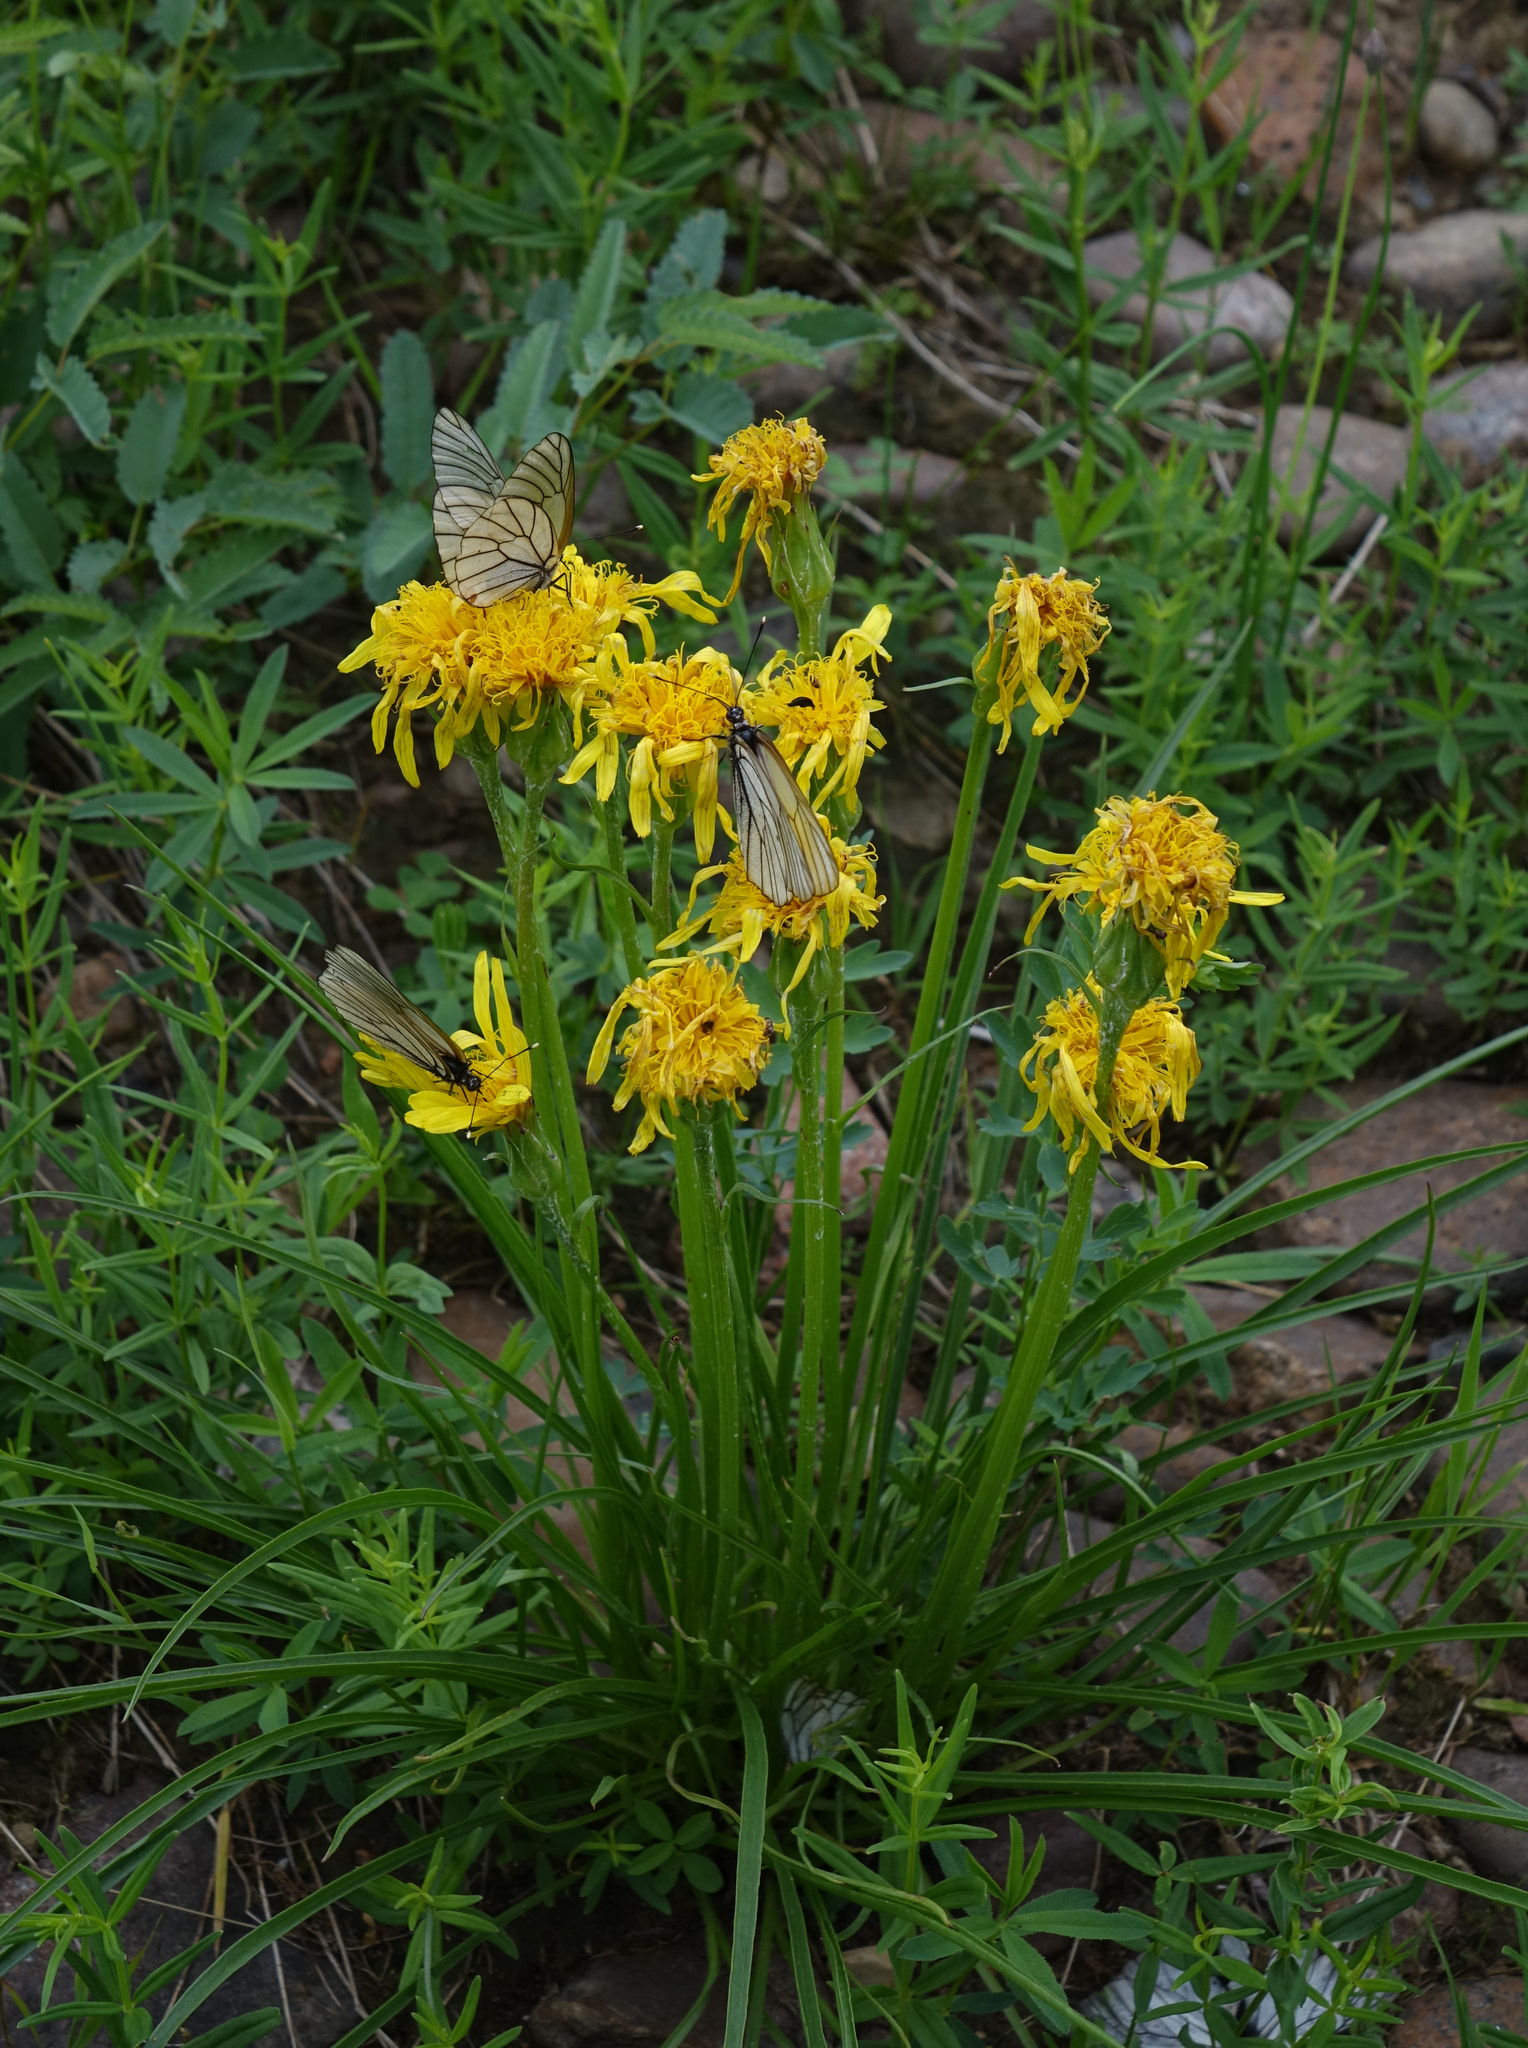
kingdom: Animalia
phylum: Arthropoda
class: Insecta
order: Lepidoptera
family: Pieridae
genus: Aporia
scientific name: Aporia crataegi
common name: Black-veined white
